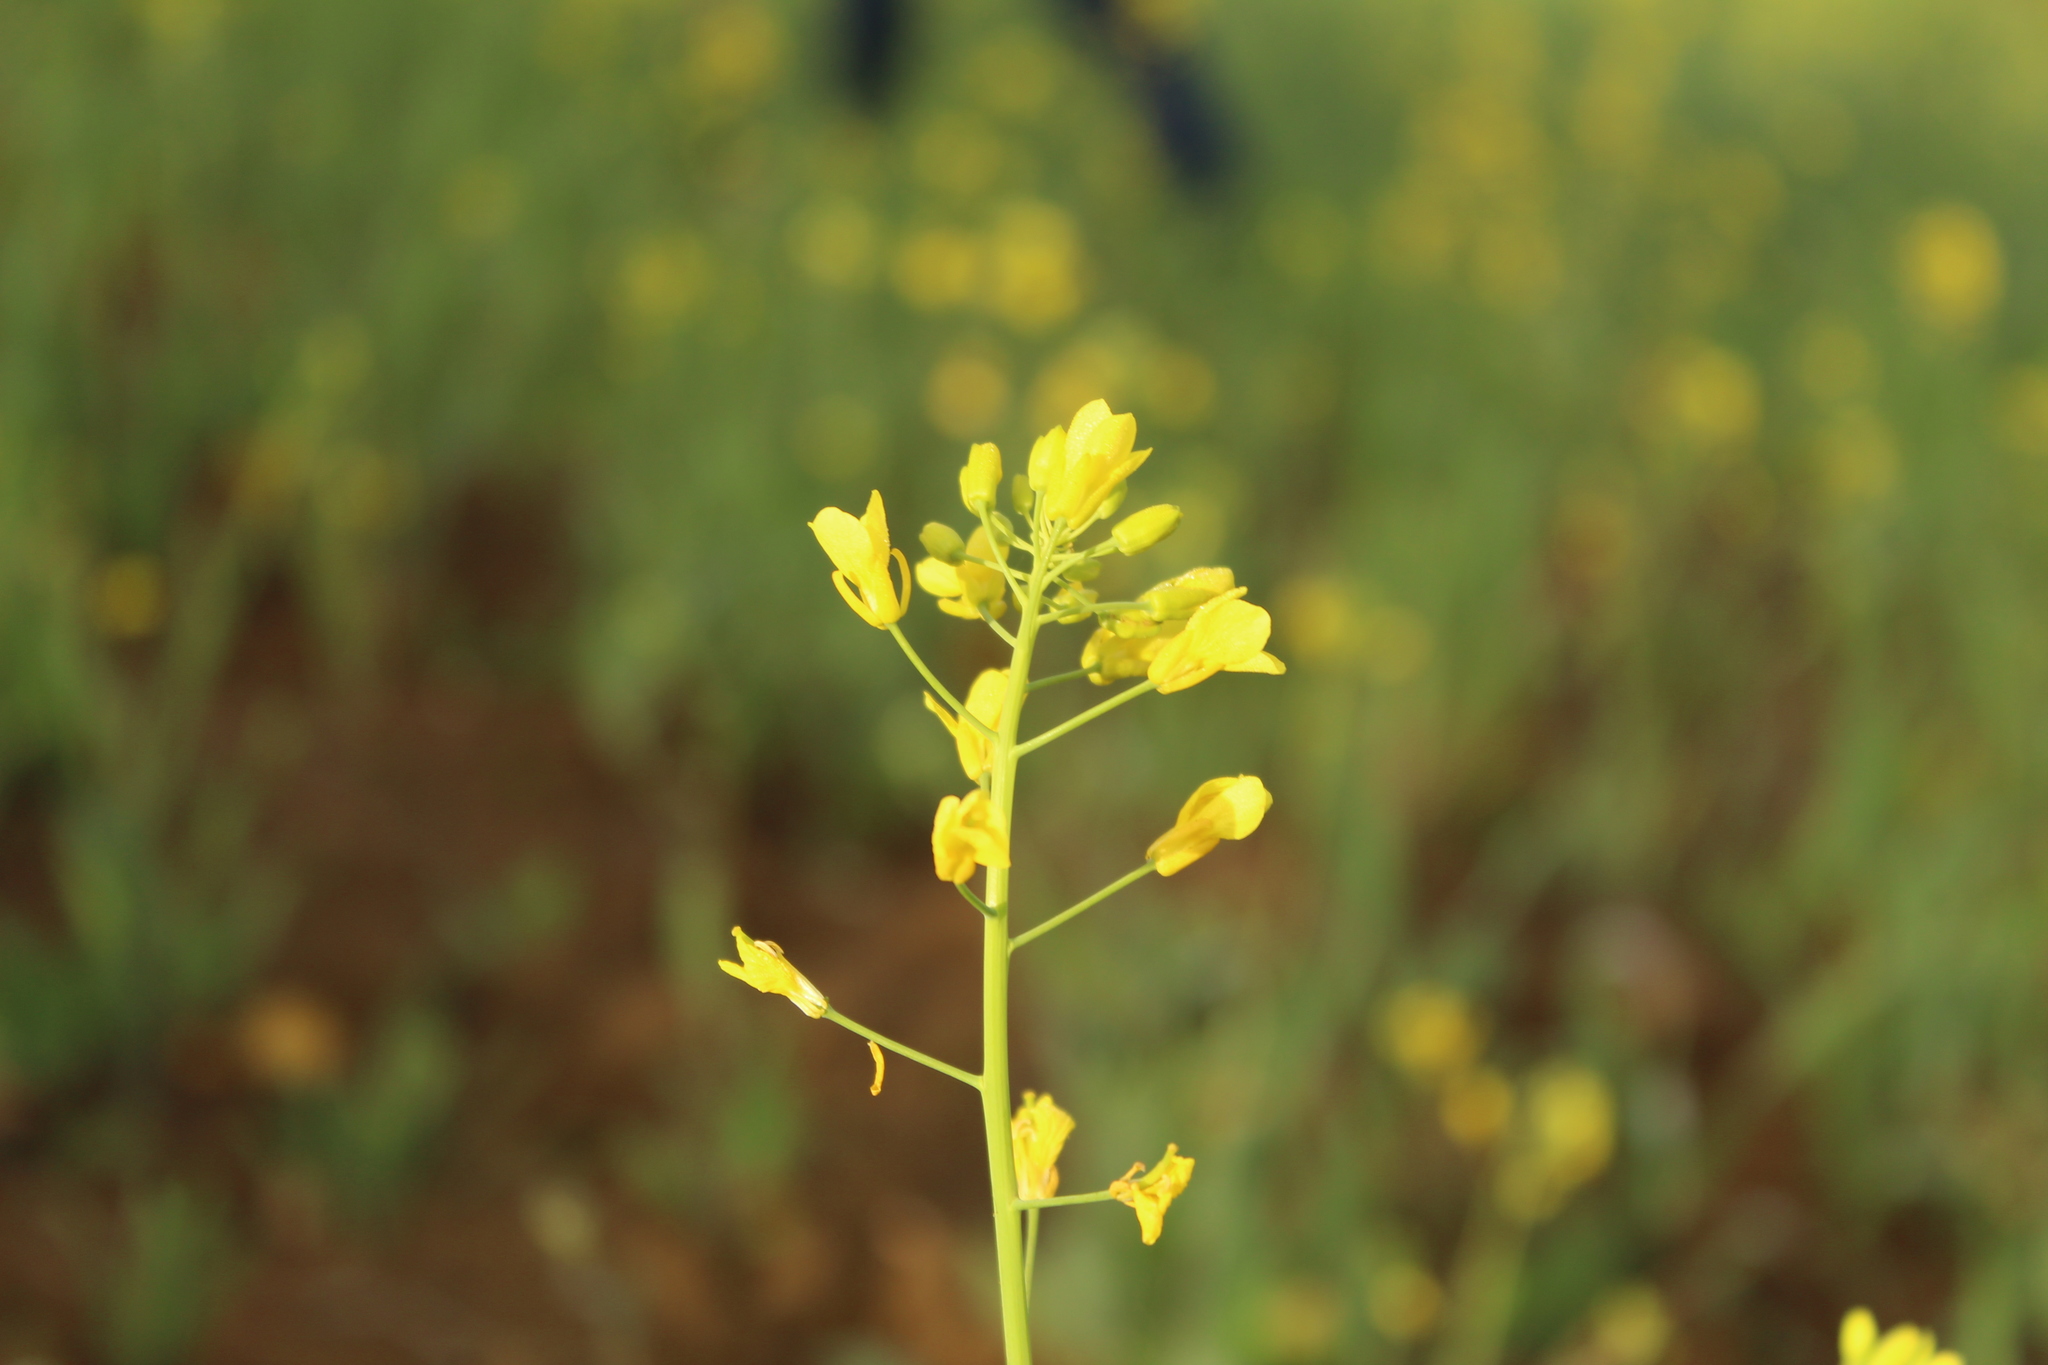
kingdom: Plantae
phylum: Tracheophyta
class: Magnoliopsida
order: Brassicales
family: Brassicaceae
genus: Brassica
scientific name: Brassica rapa
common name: Field mustard
